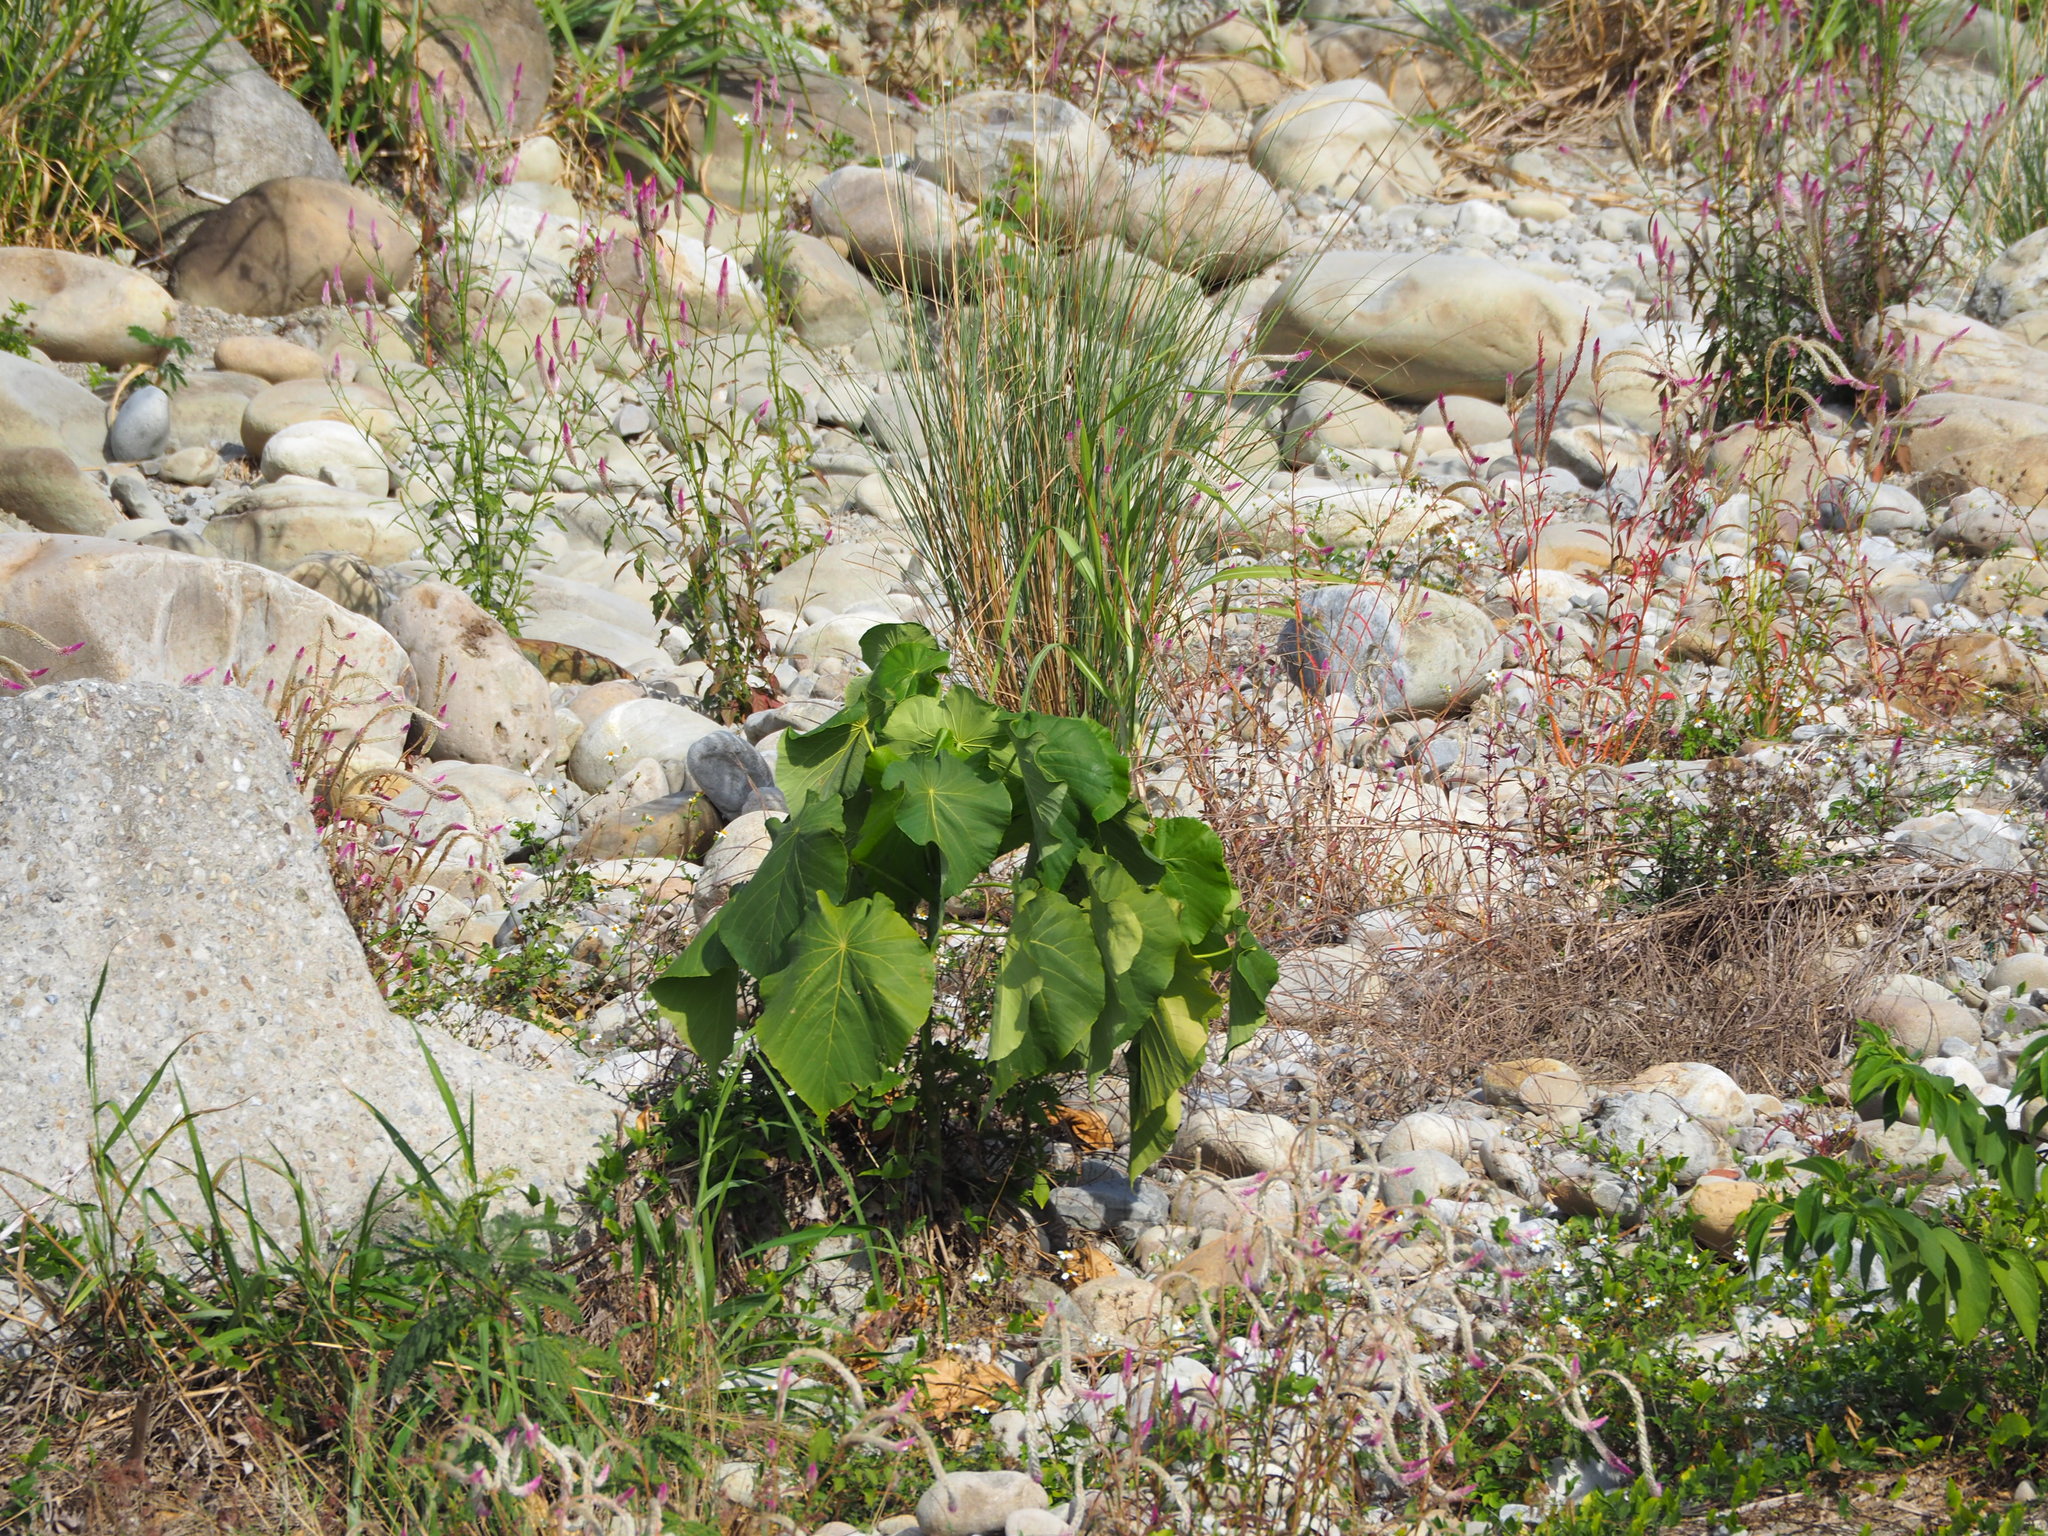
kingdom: Plantae
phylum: Tracheophyta
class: Magnoliopsida
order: Malpighiales
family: Euphorbiaceae
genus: Macaranga
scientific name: Macaranga tanarius
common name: Parasol leaf tree
